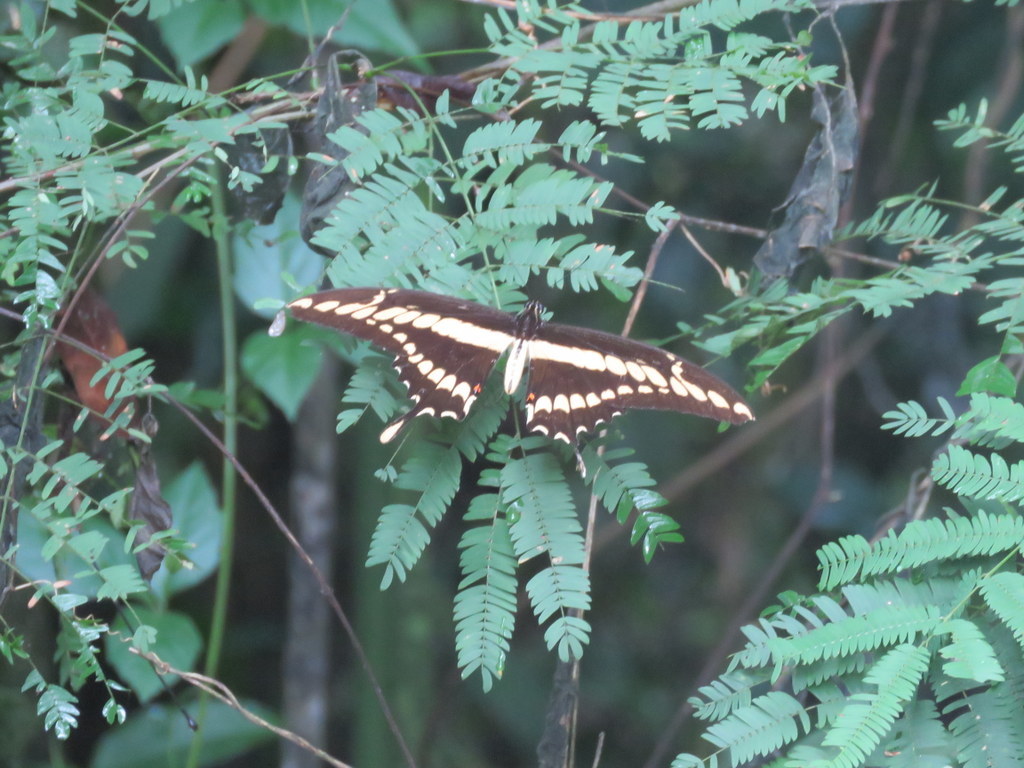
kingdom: Animalia
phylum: Arthropoda
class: Insecta
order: Lepidoptera
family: Papilionidae
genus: Papilio
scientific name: Papilio thoas
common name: King swallowtail
